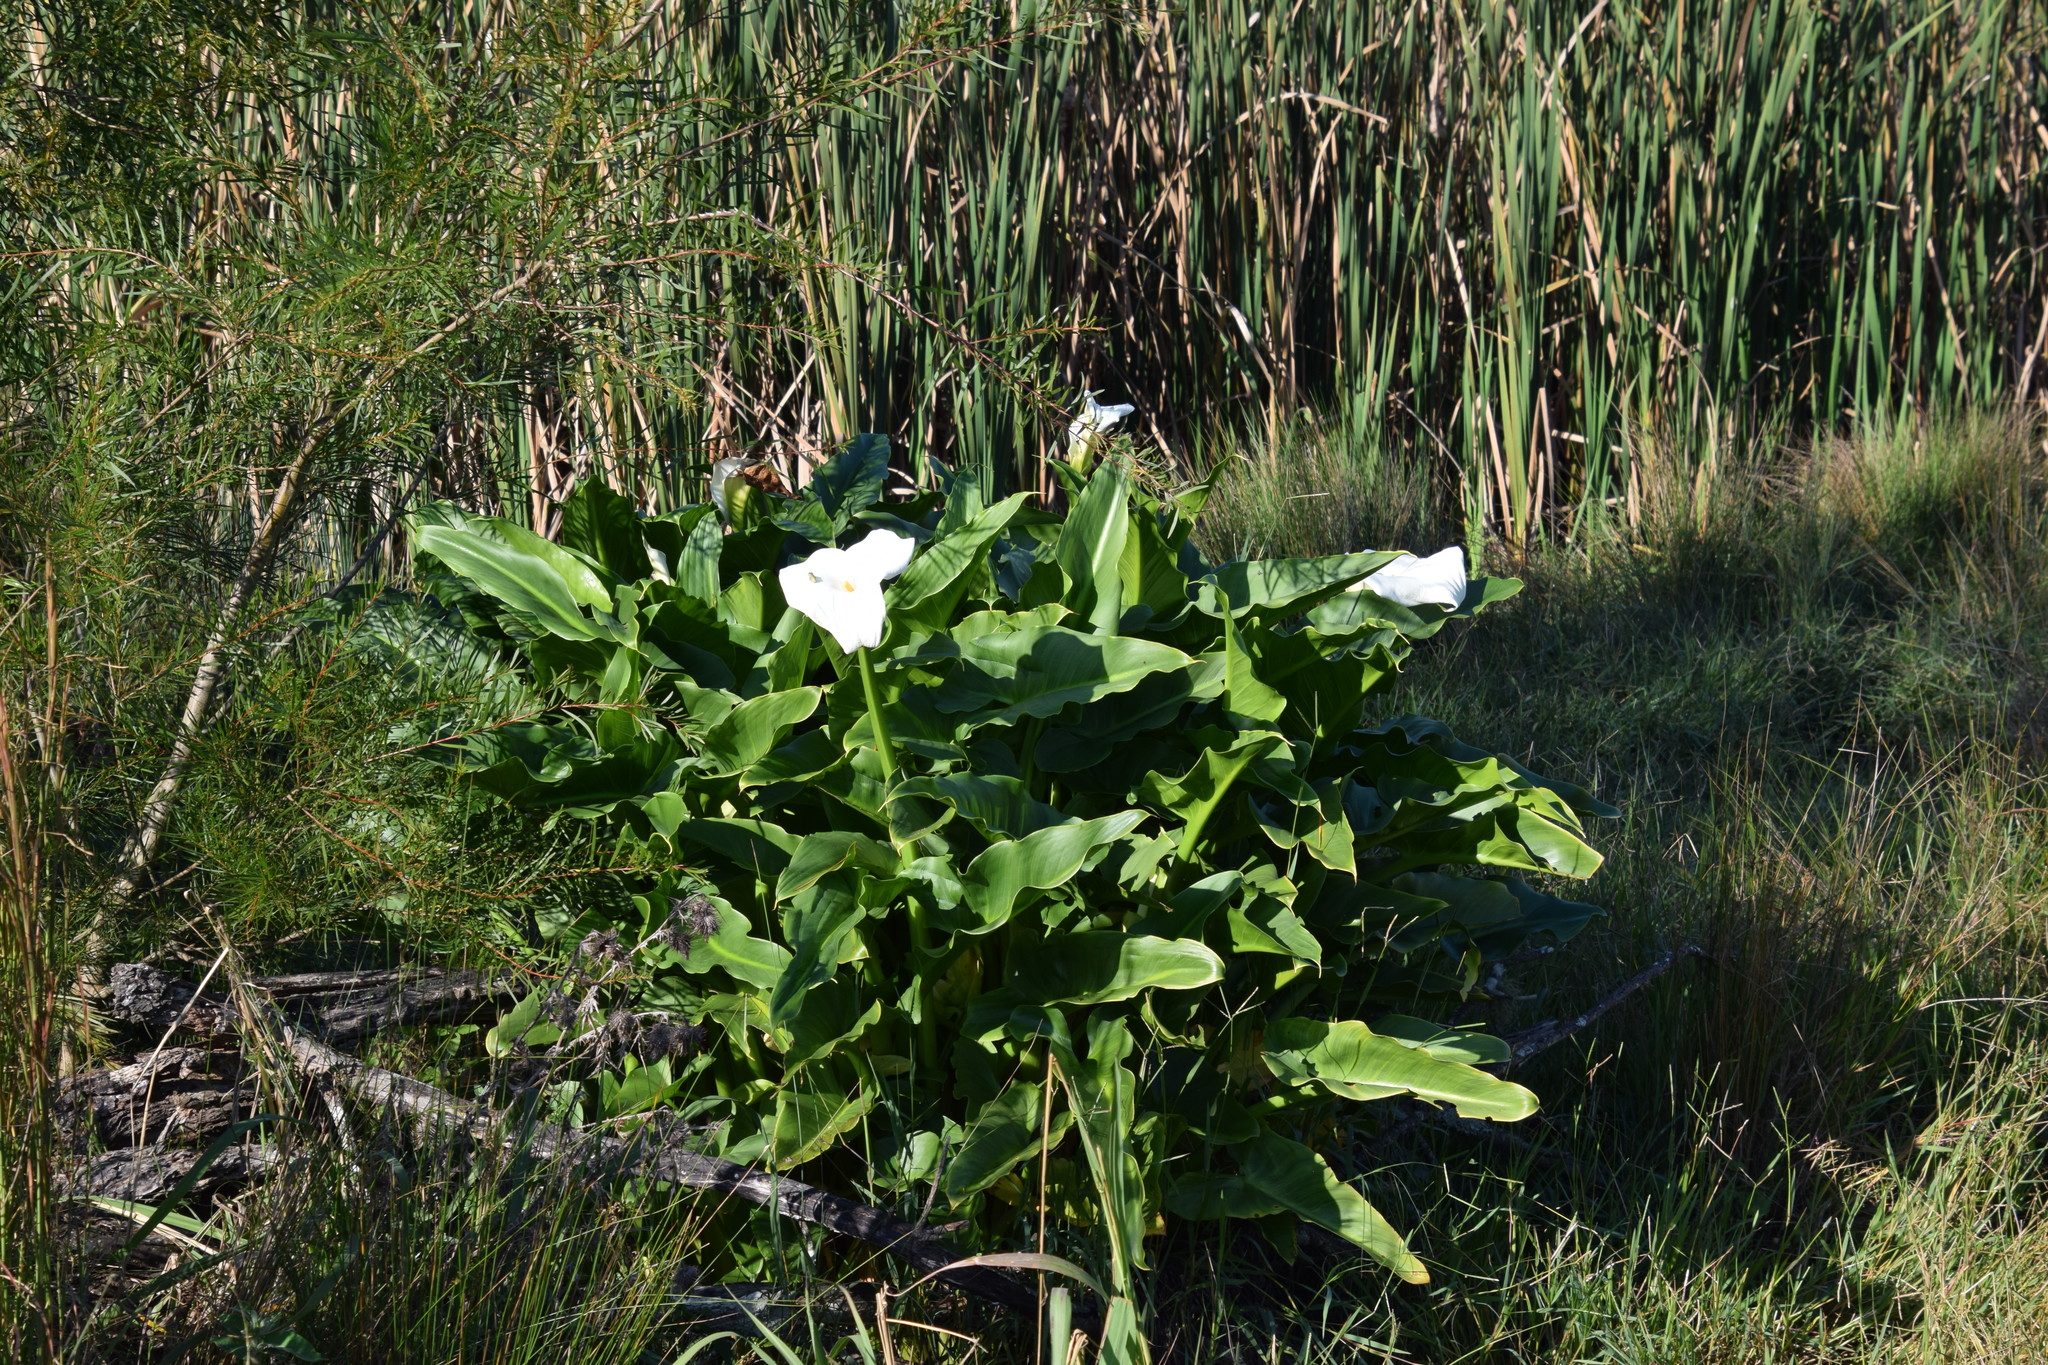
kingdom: Plantae
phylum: Tracheophyta
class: Liliopsida
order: Alismatales
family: Araceae
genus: Zantedeschia
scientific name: Zantedeschia aethiopica
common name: Altar-lily
